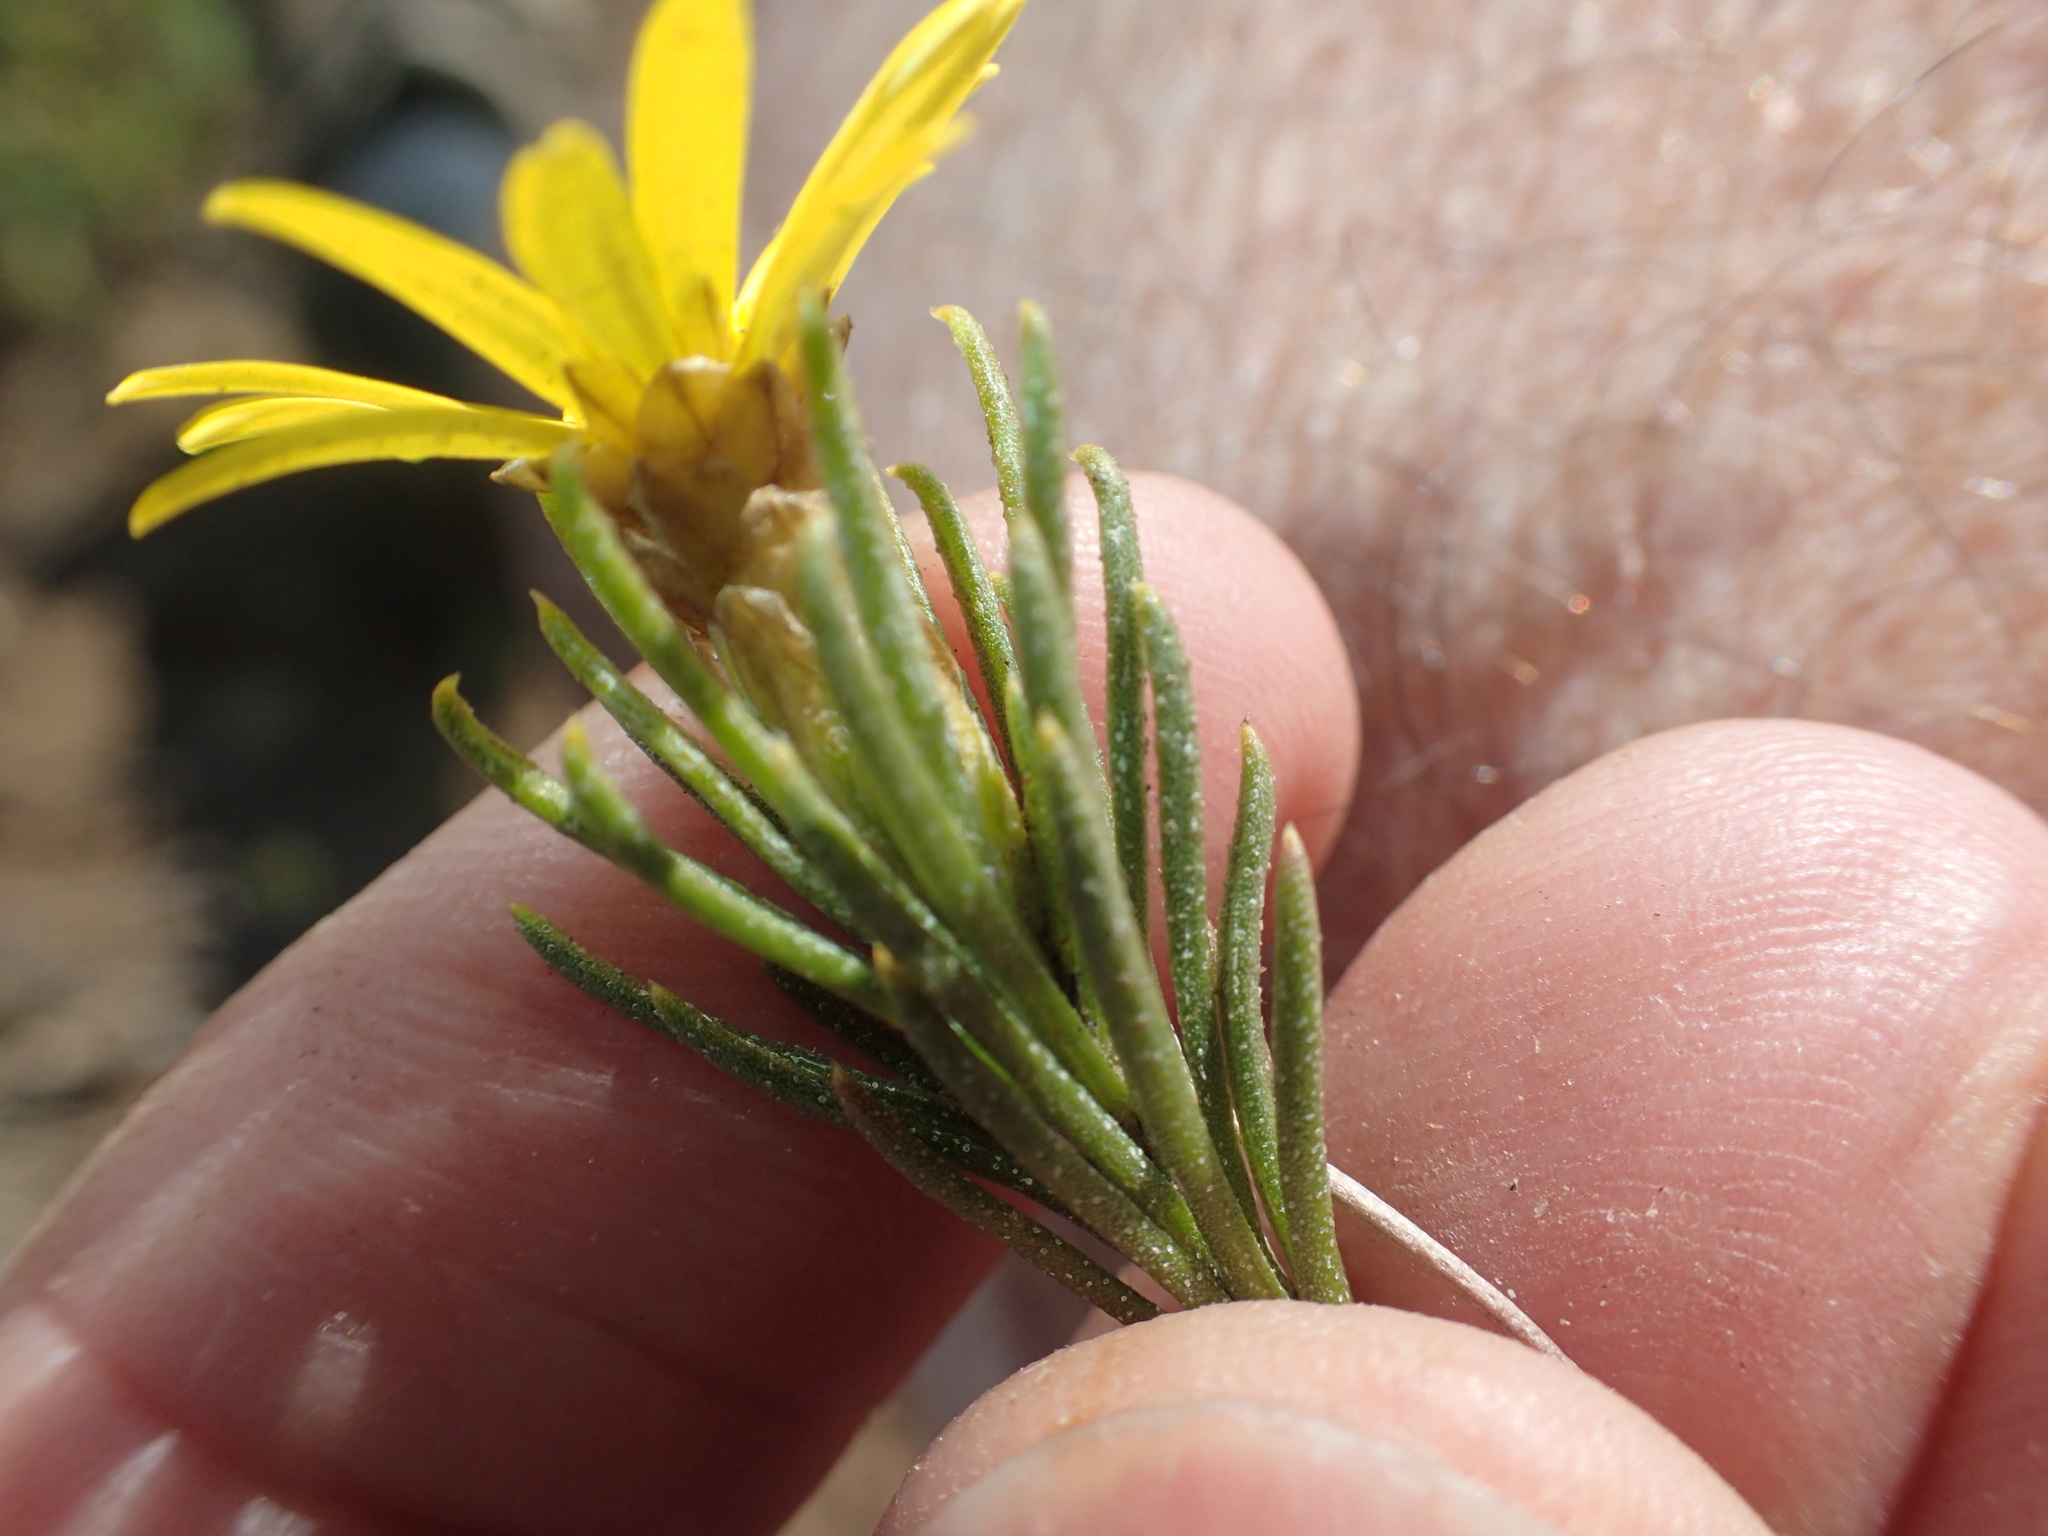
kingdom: Plantae
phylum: Tracheophyta
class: Magnoliopsida
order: Asterales
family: Asteraceae
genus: Oedera
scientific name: Oedera acerosa
